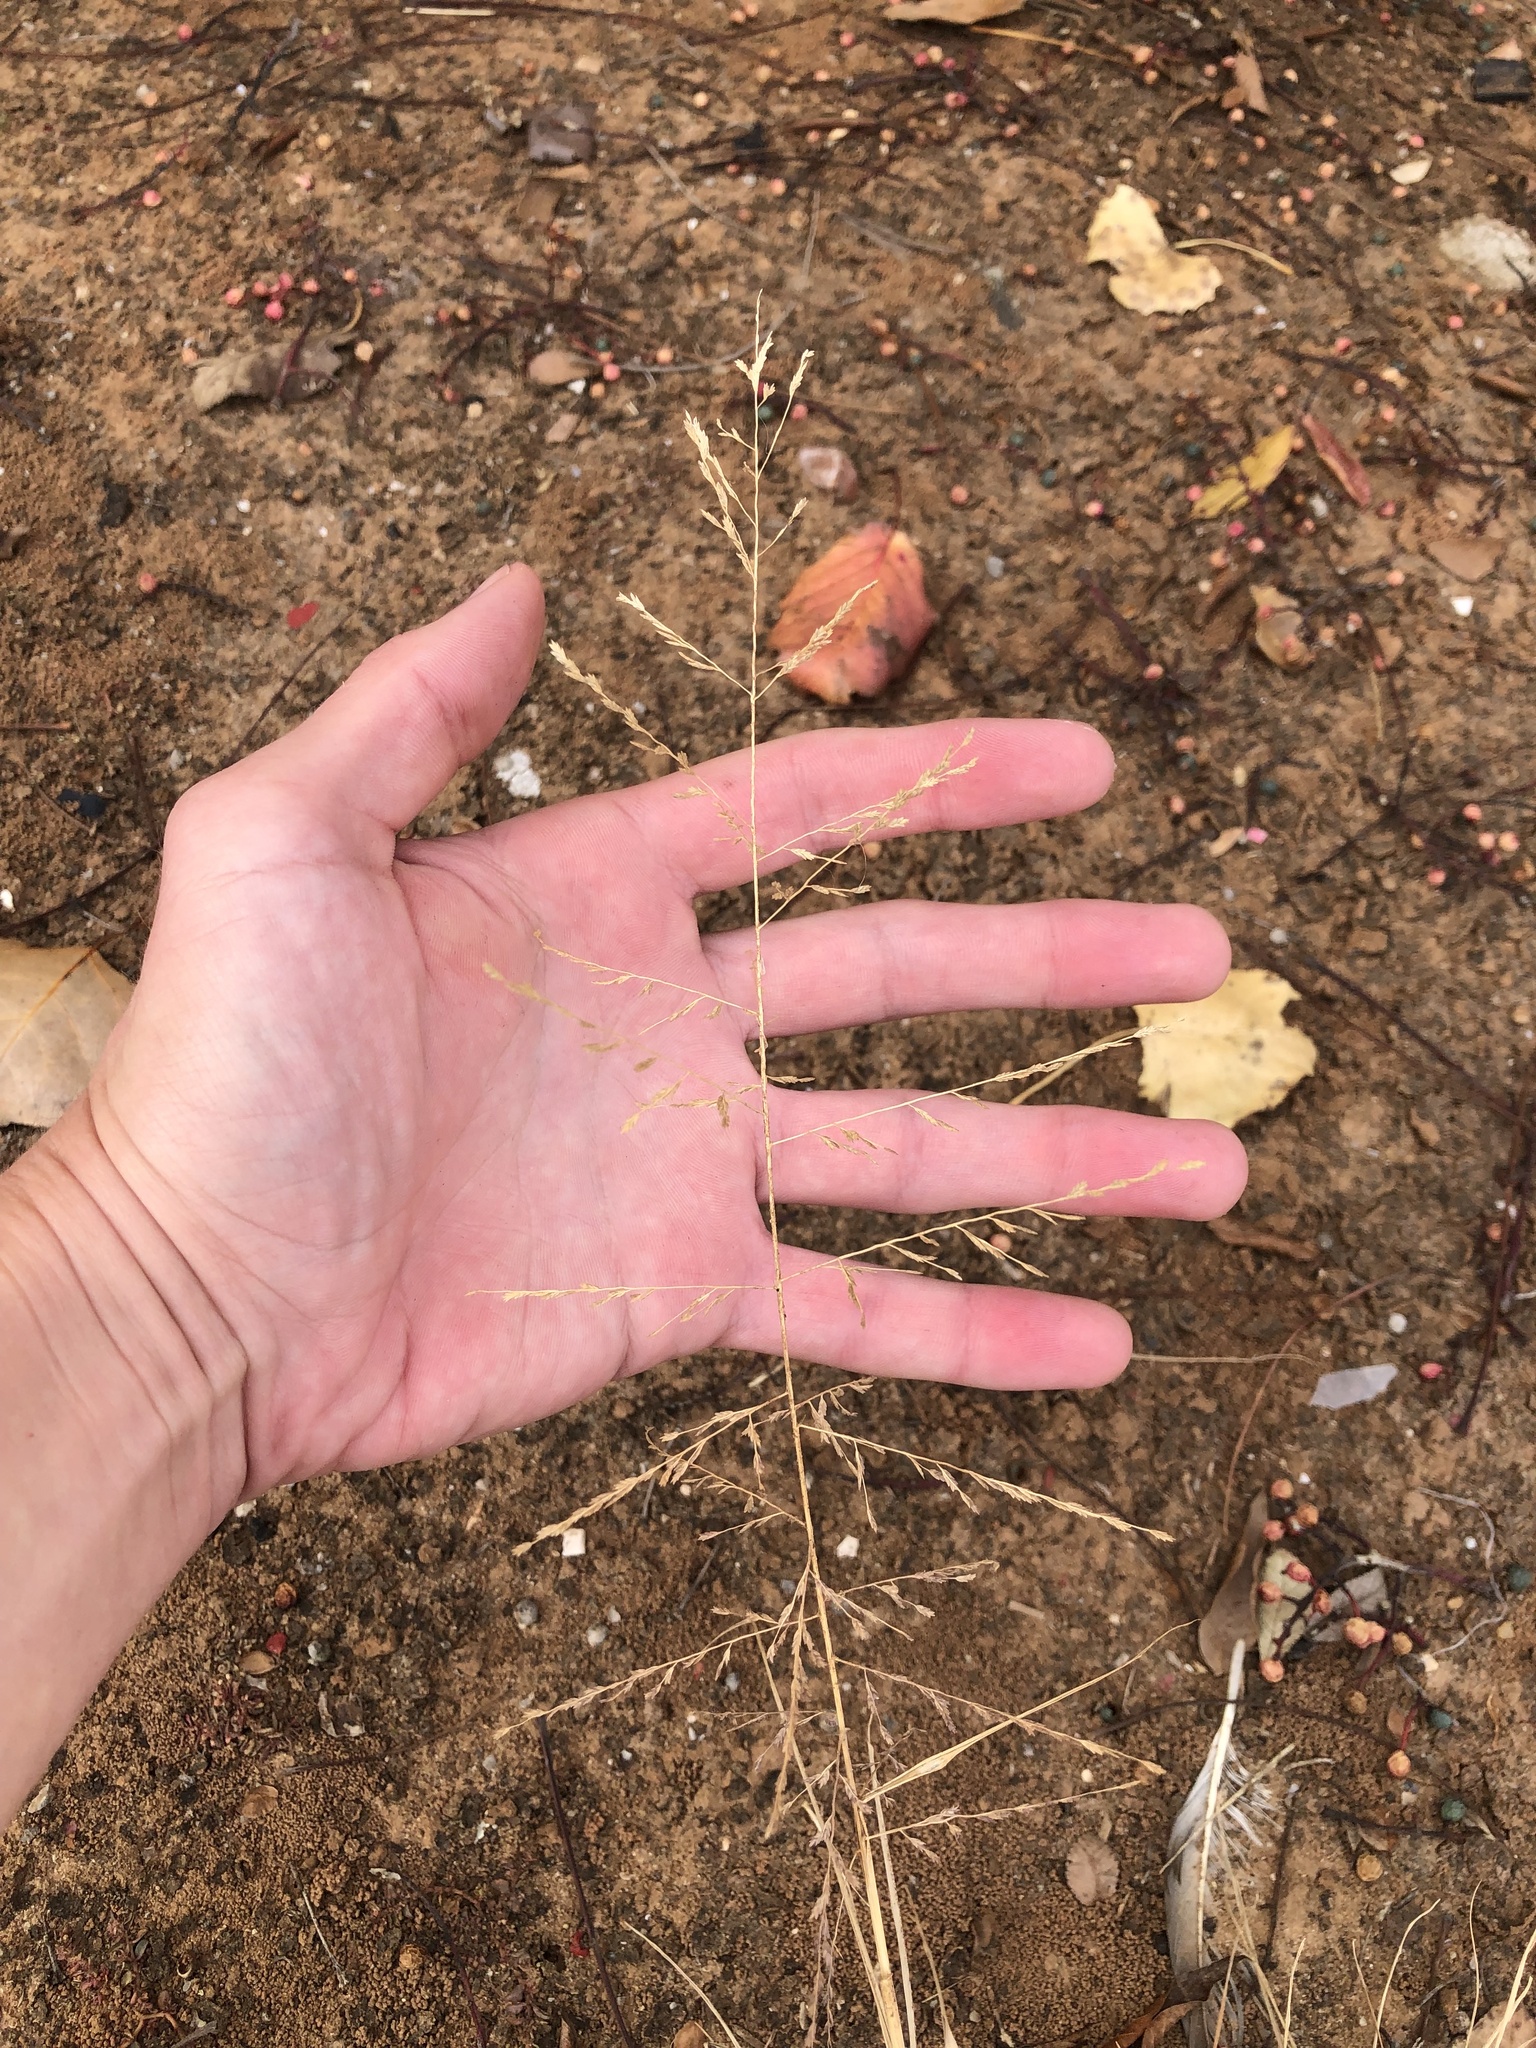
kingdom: Plantae
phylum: Tracheophyta
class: Liliopsida
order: Poales
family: Poaceae
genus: Eragrostis
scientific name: Eragrostis curtipedicellata
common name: Gummy love grass
